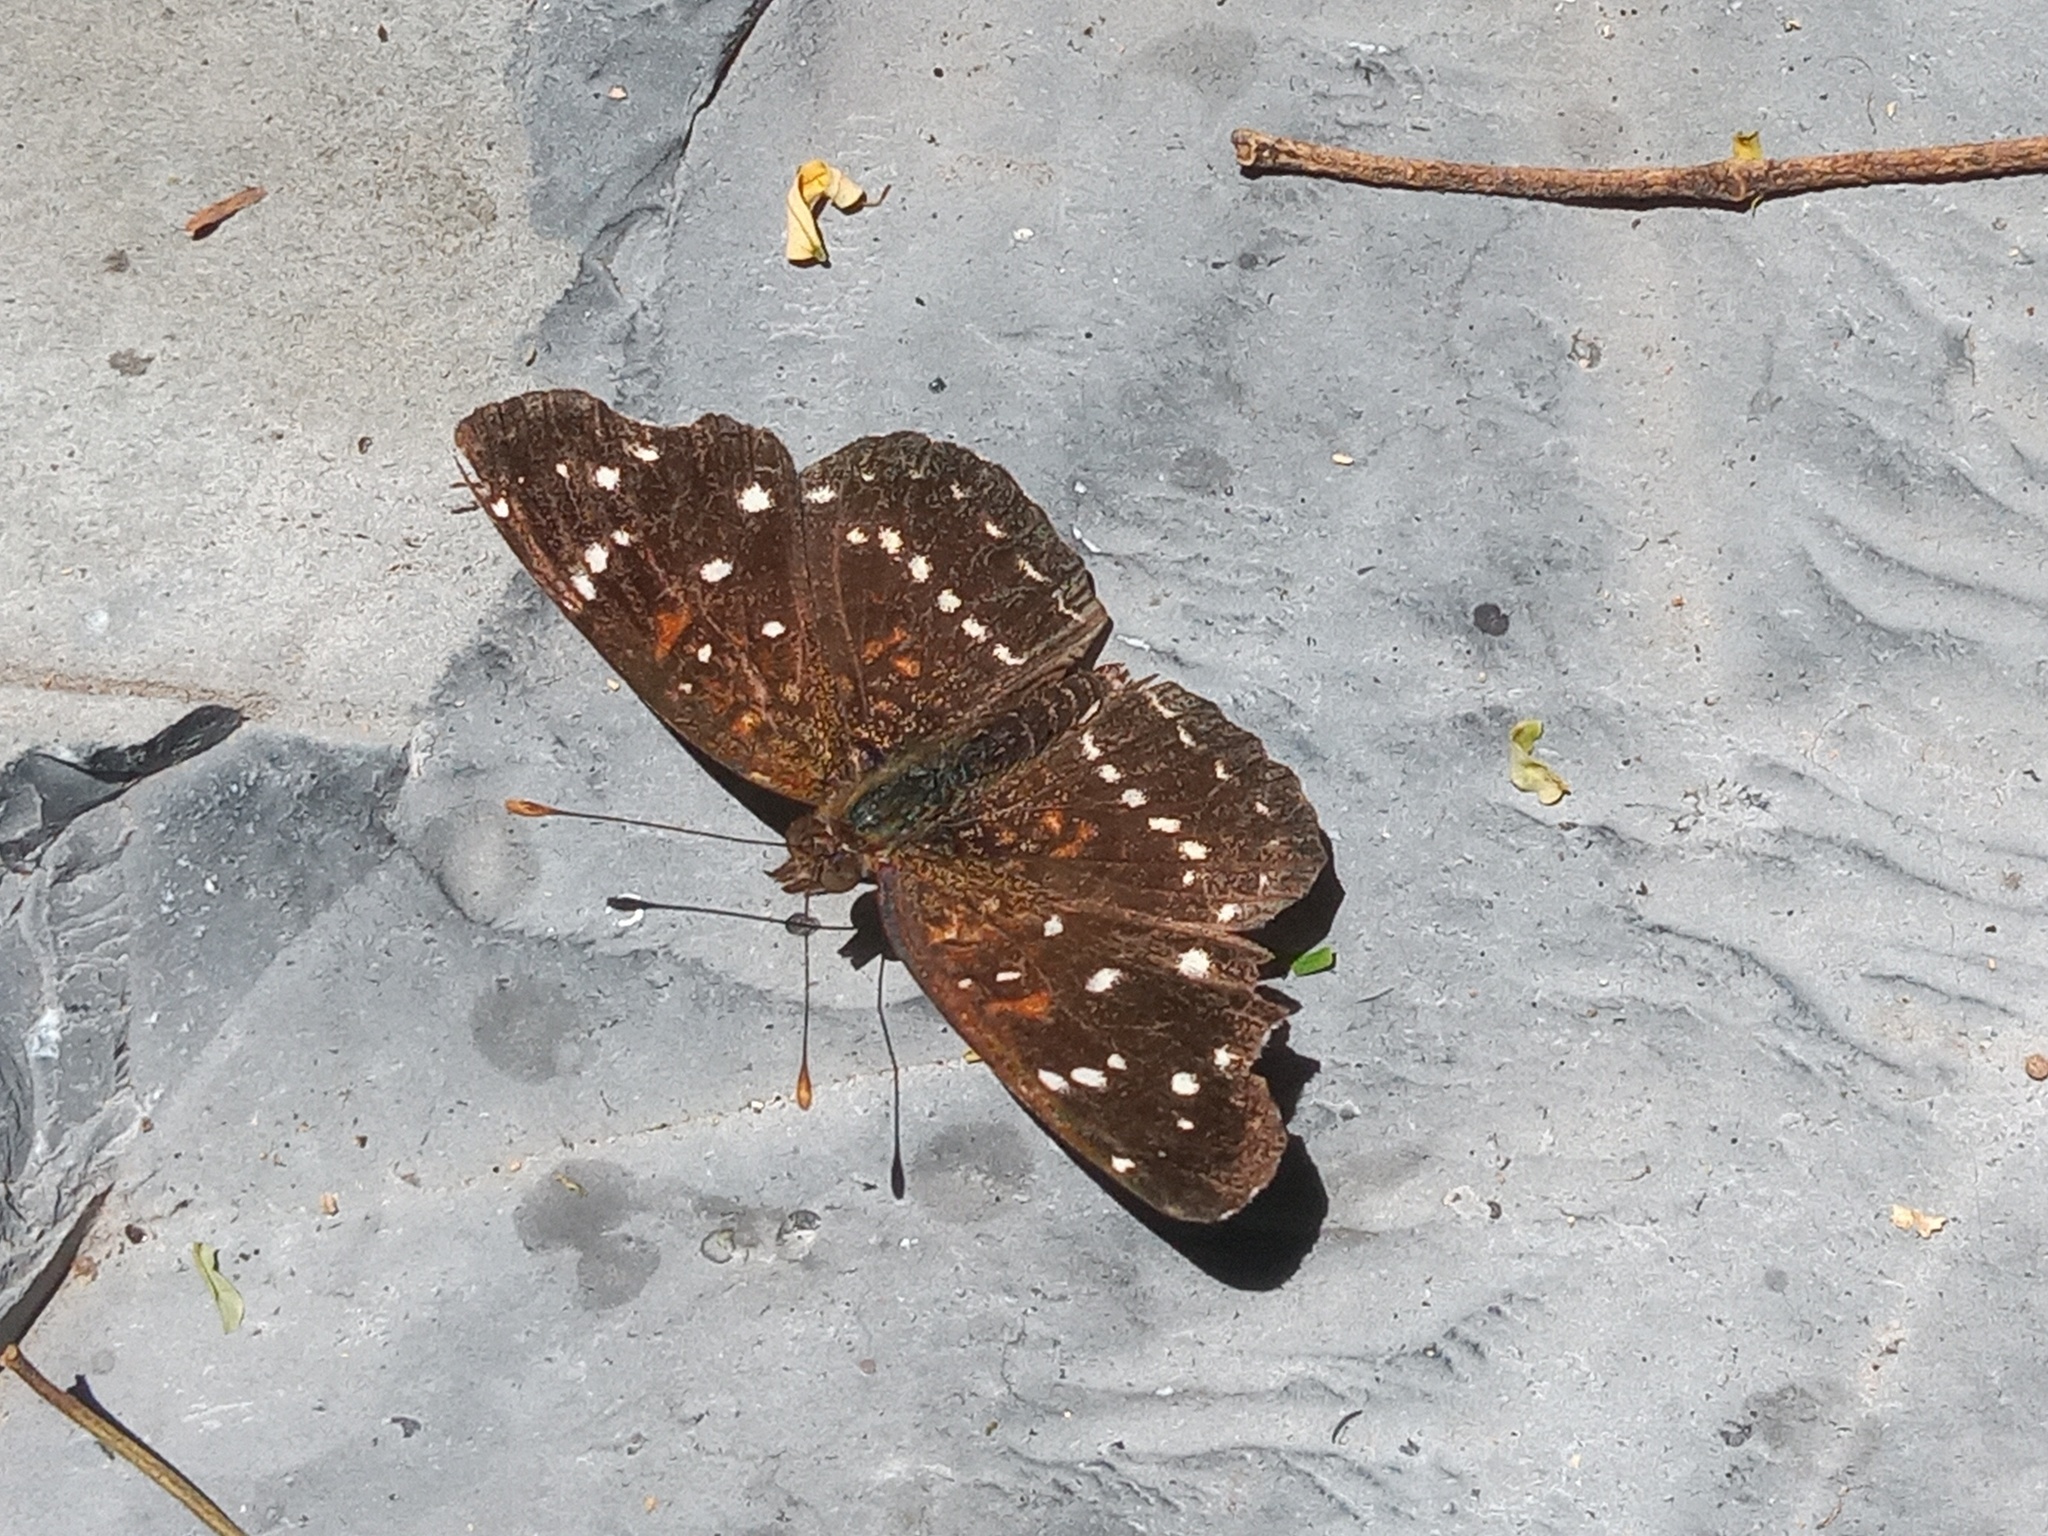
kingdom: Animalia
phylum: Arthropoda
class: Insecta
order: Lepidoptera
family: Nymphalidae
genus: Anthanassa
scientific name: Anthanassa texana
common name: Texan crescent
